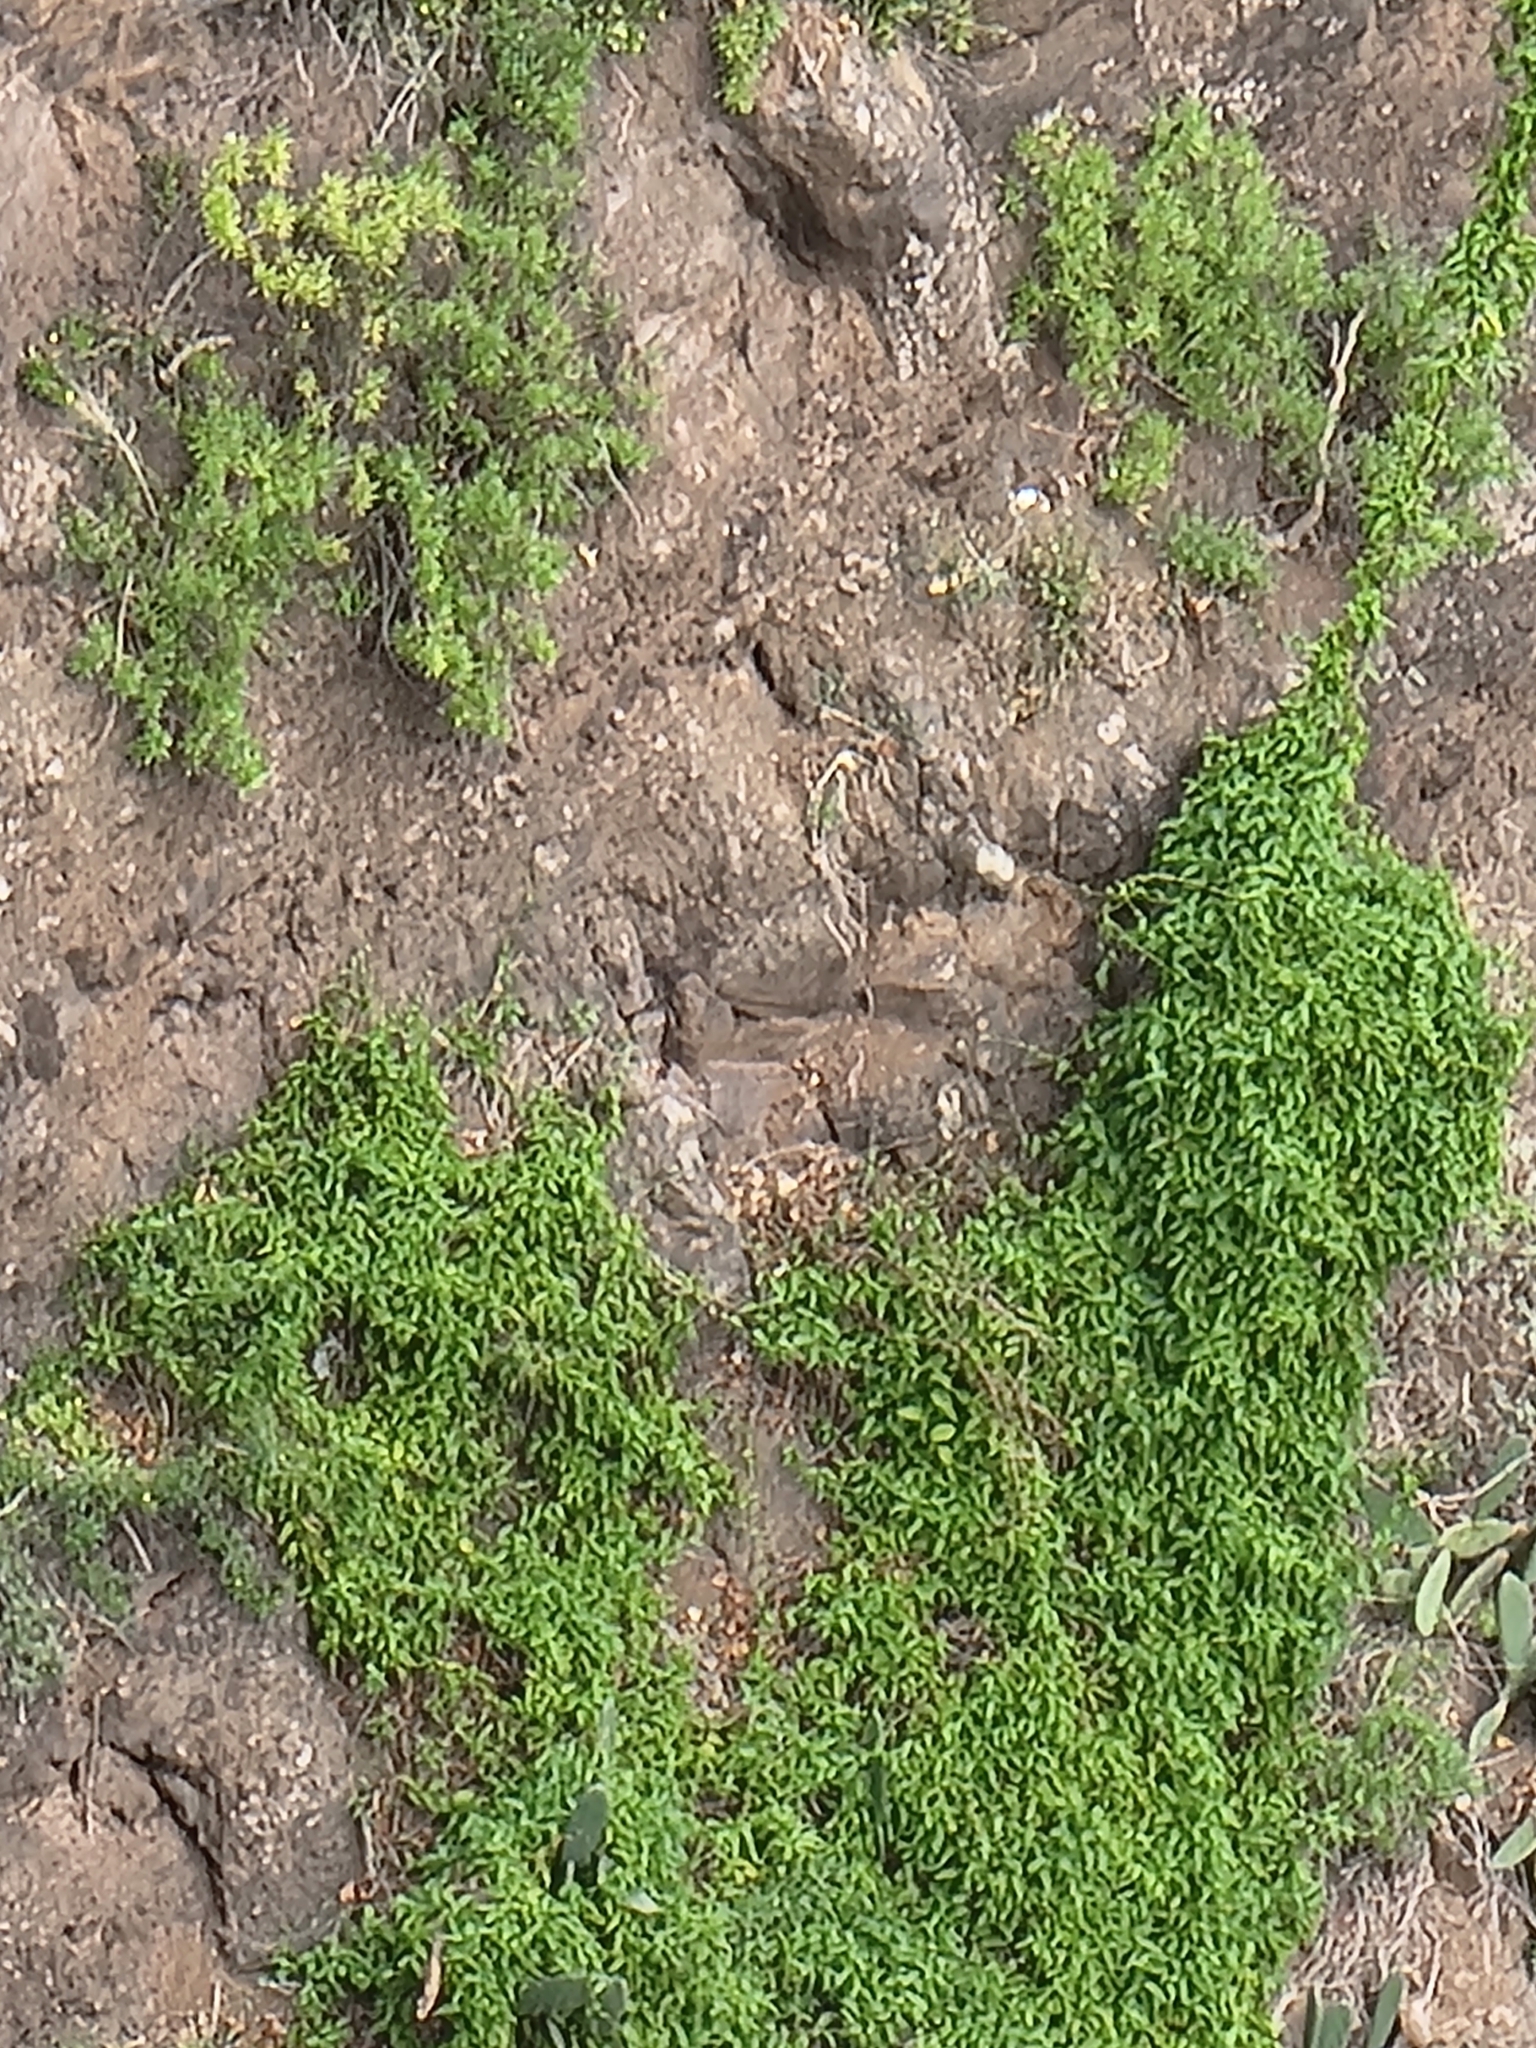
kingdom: Plantae
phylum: Tracheophyta
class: Magnoliopsida
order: Solanales
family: Convolvulaceae
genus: Convolvulus
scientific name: Convolvulus massonii
